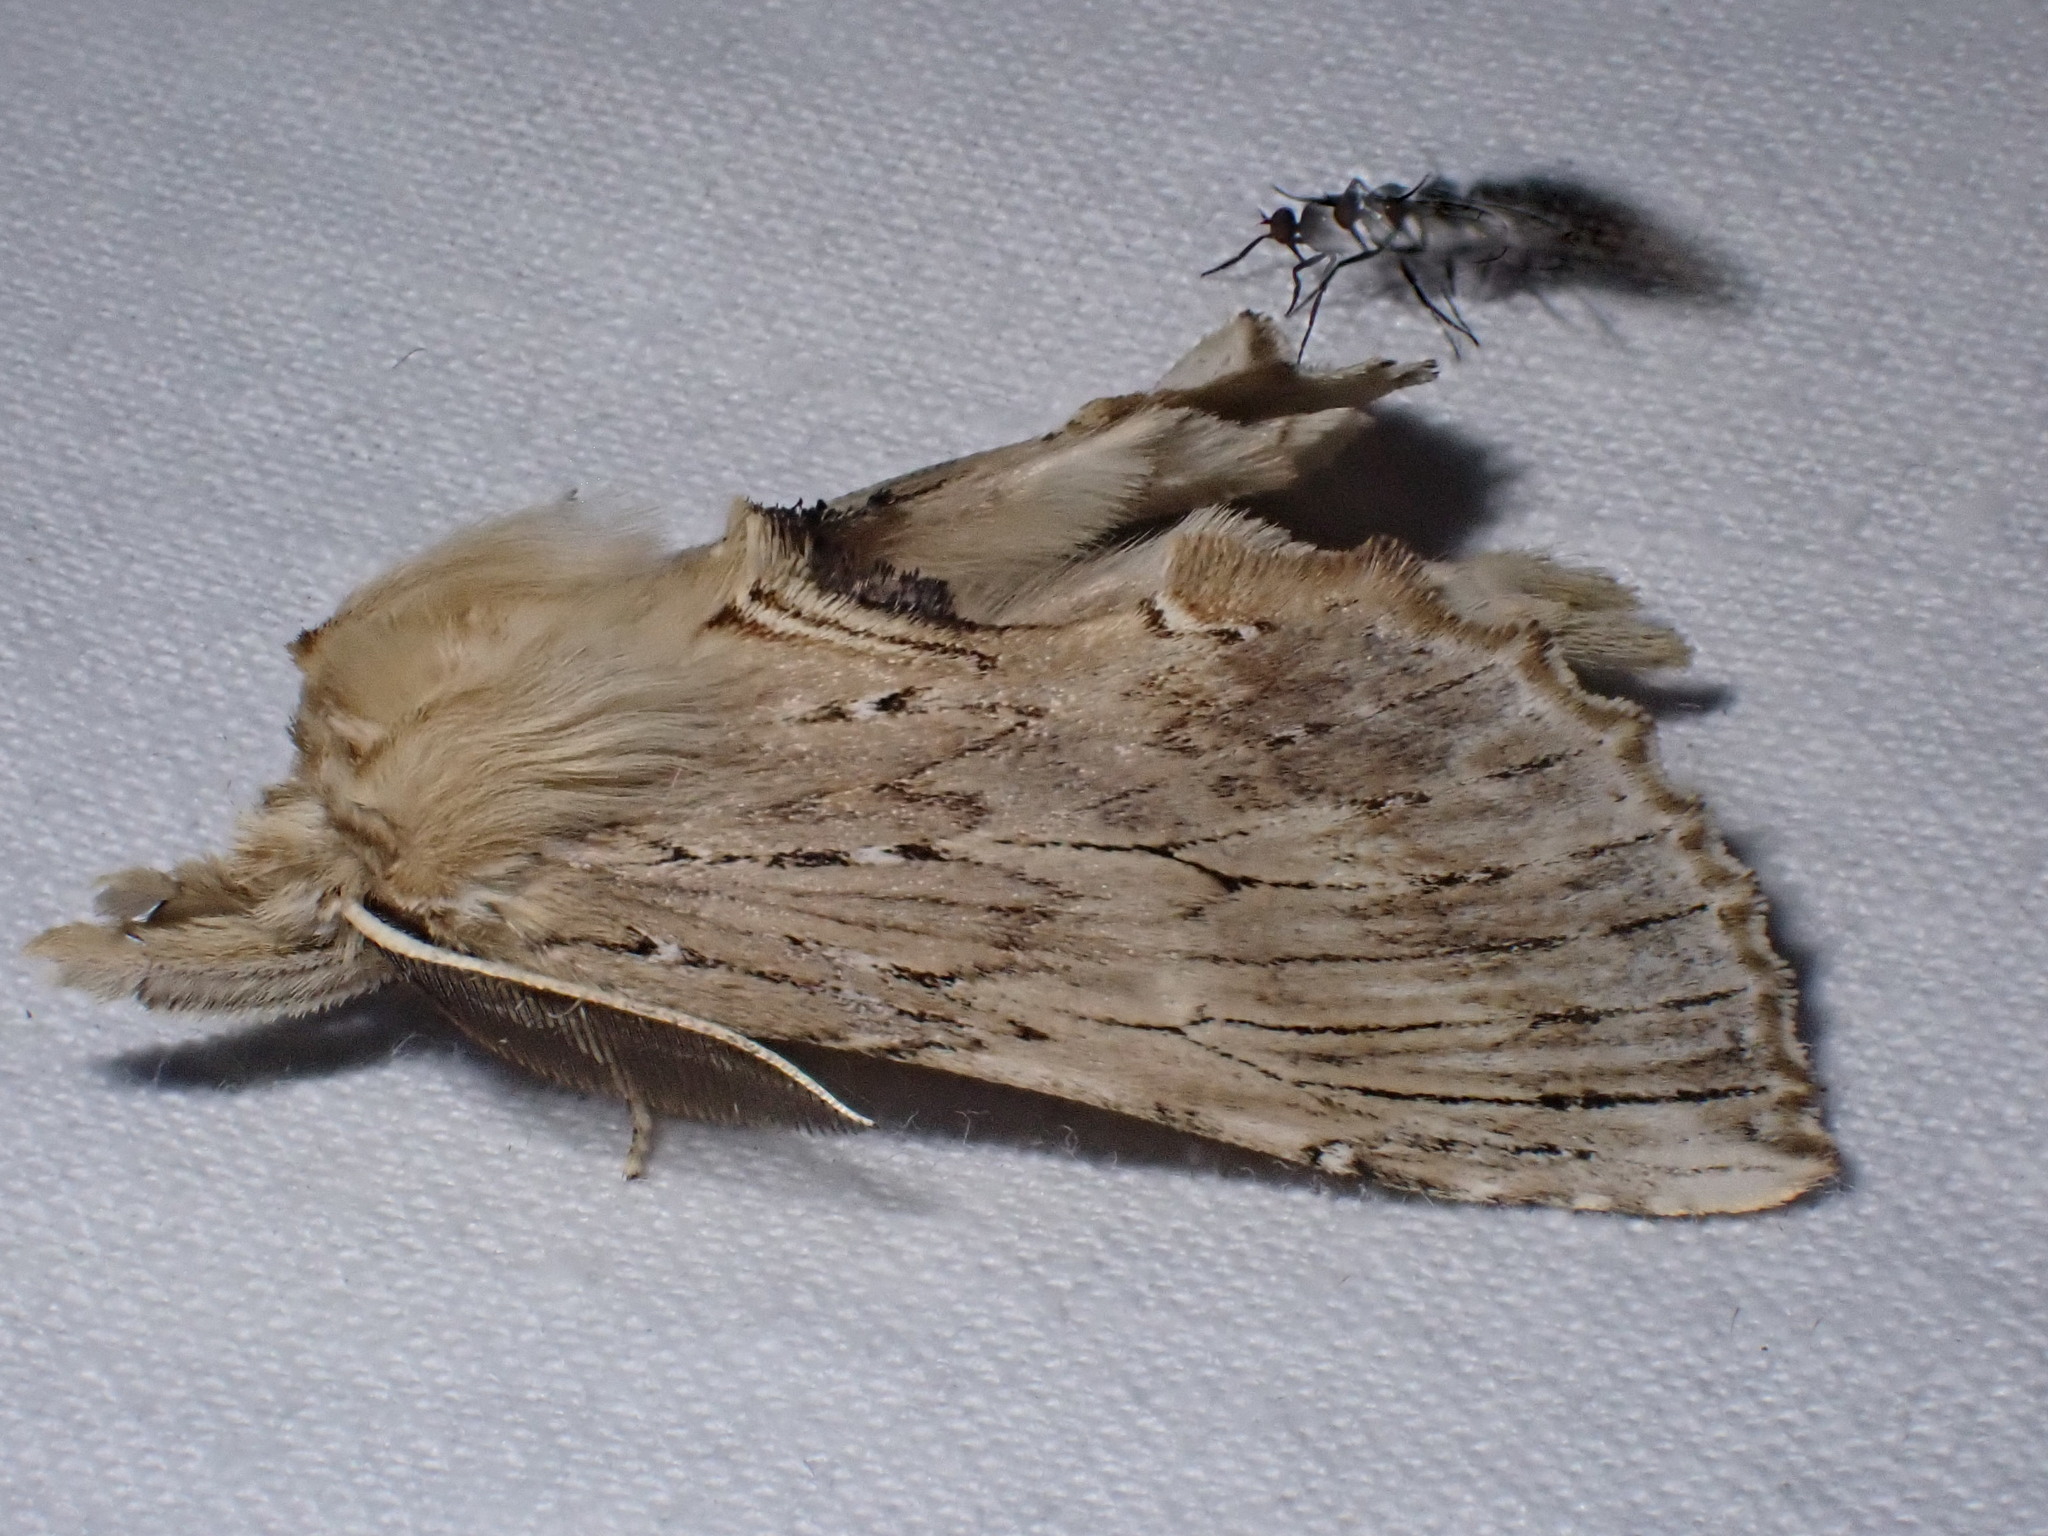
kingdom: Animalia
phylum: Arthropoda
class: Insecta
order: Lepidoptera
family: Notodontidae
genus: Pterostoma
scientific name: Pterostoma palpina
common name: Pale prominent
